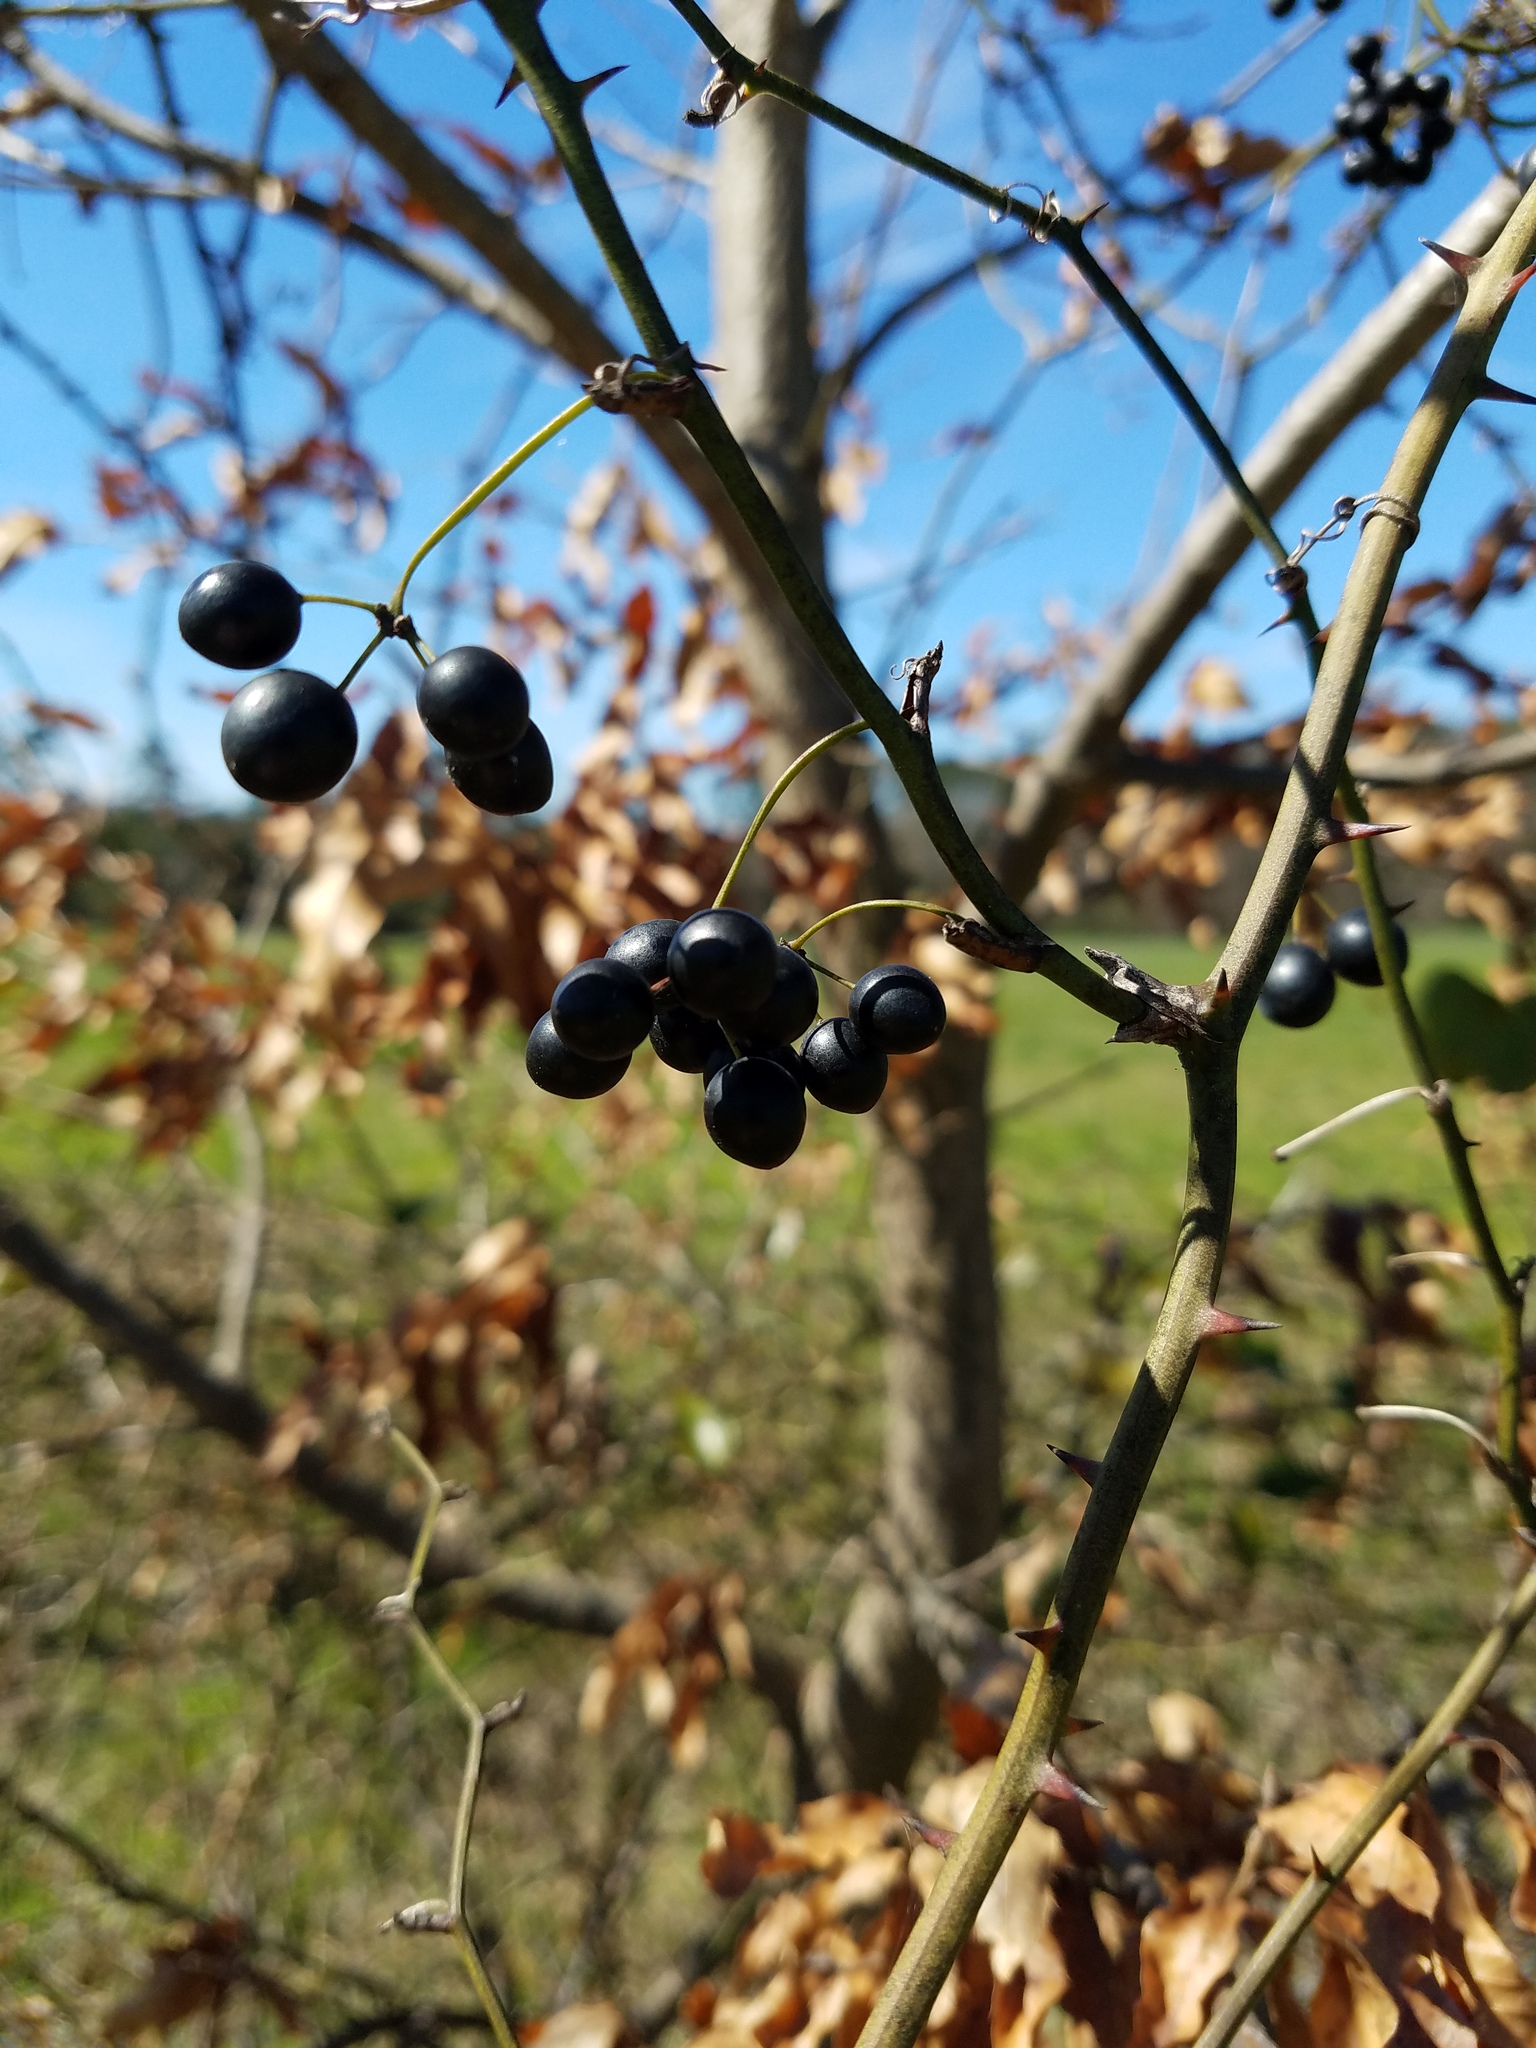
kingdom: Plantae
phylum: Tracheophyta
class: Liliopsida
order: Liliales
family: Smilacaceae
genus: Smilax
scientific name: Smilax bona-nox
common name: Catbrier
